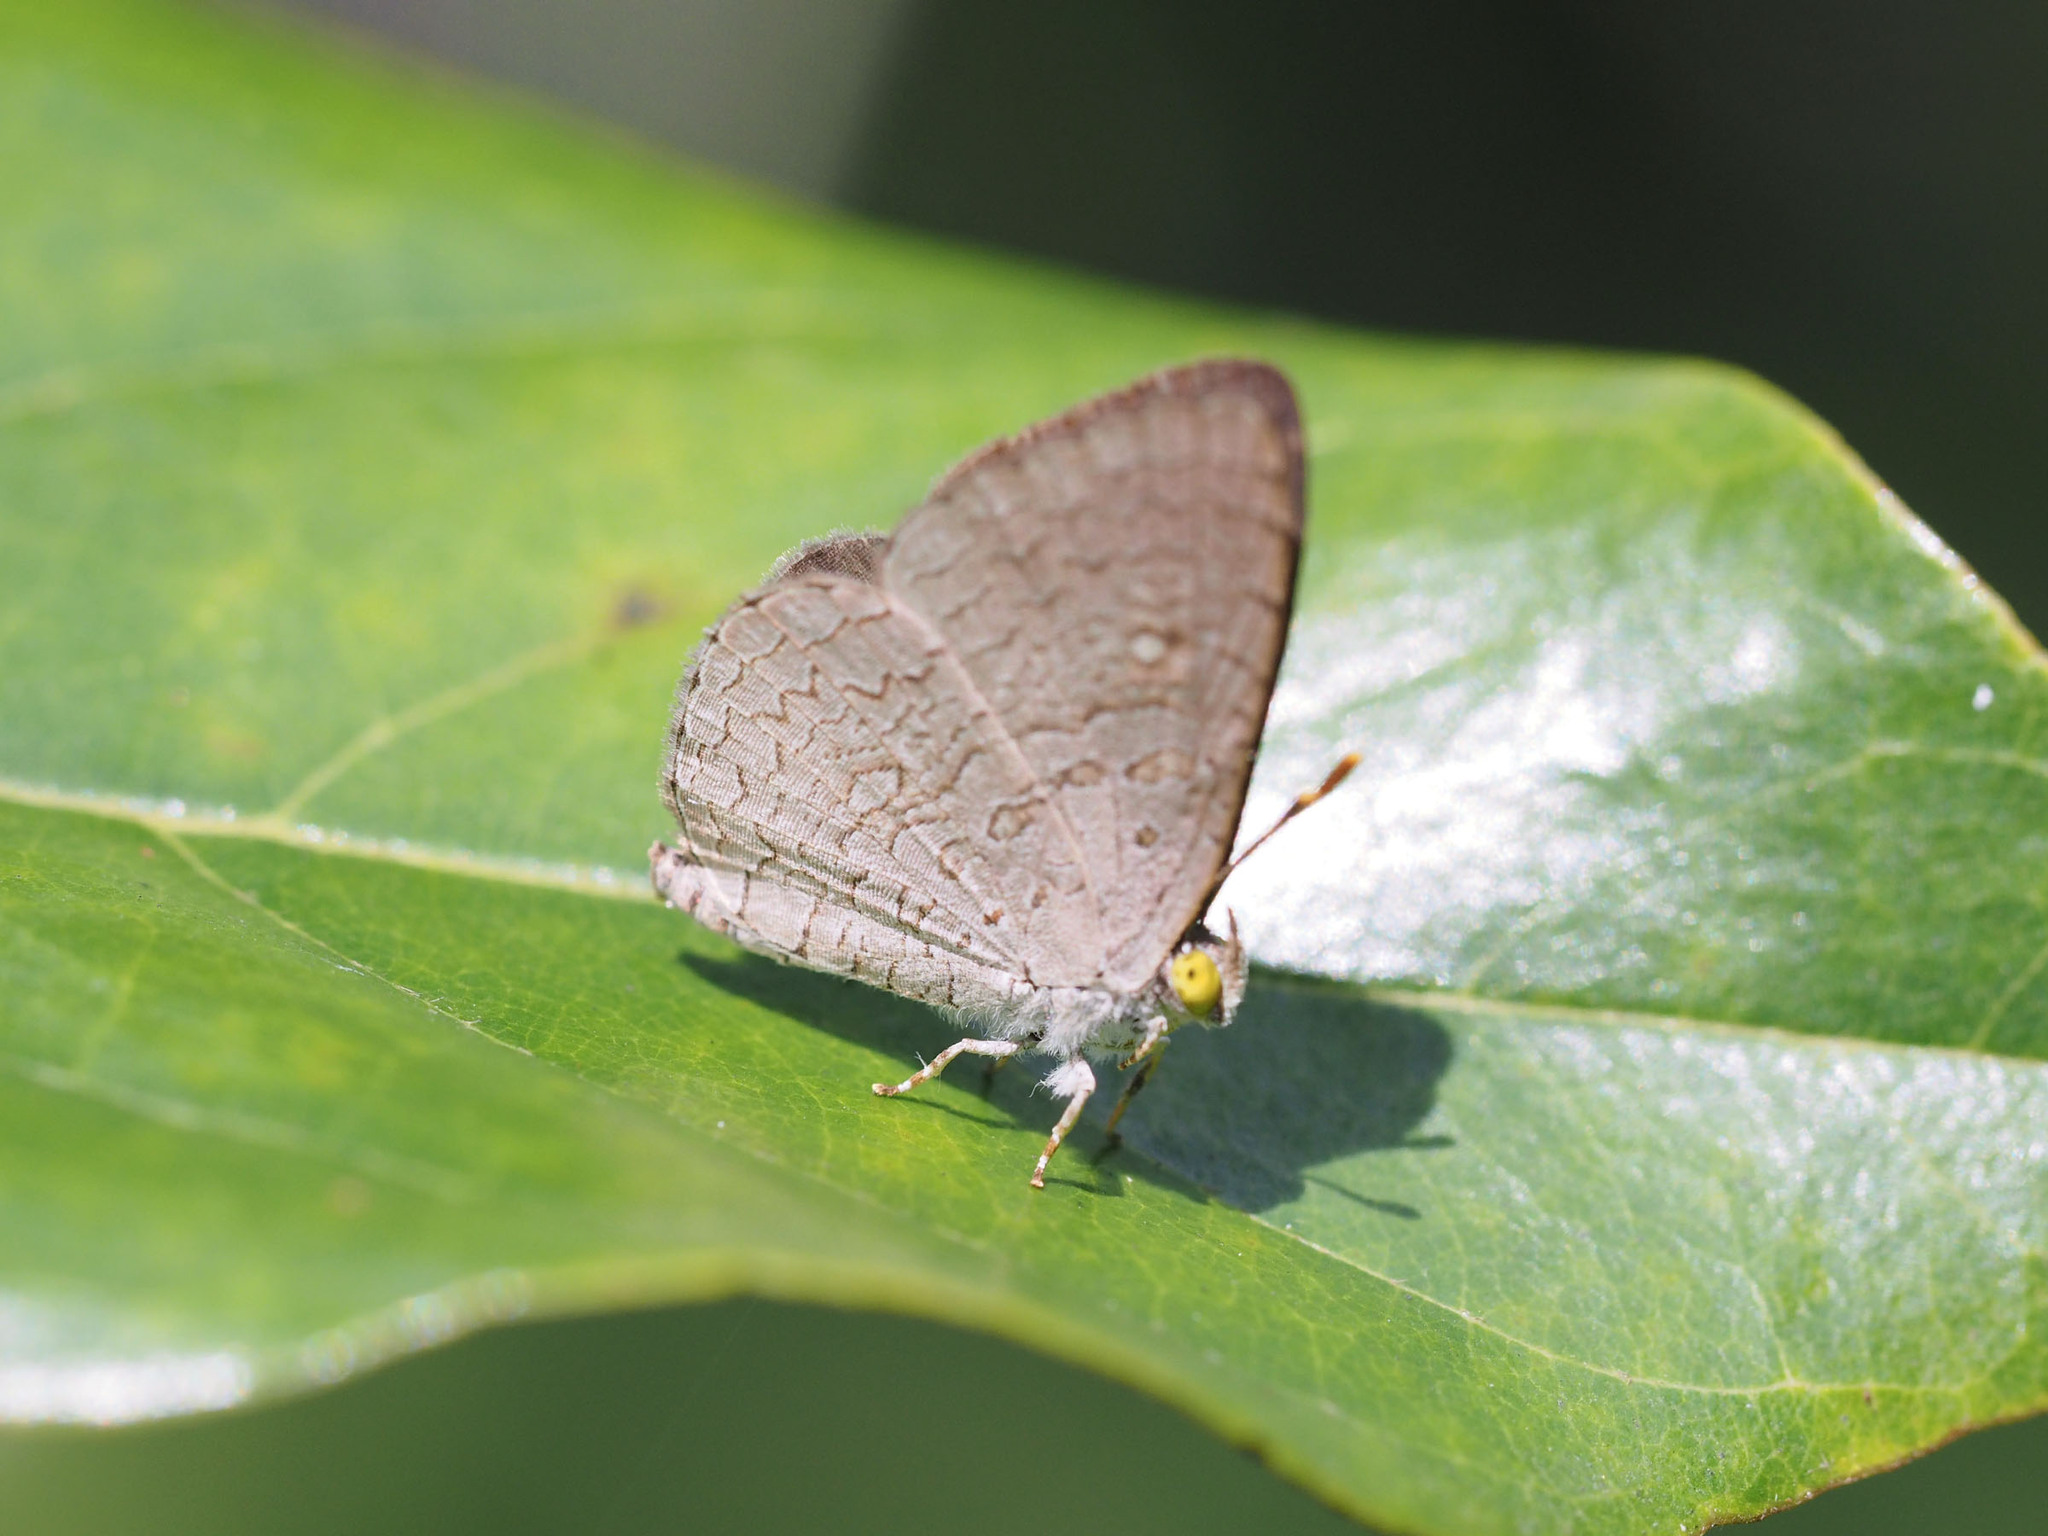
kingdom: Animalia
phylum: Arthropoda
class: Insecta
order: Lepidoptera
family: Lycaenidae
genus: Spalgis
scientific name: Spalgis epius
